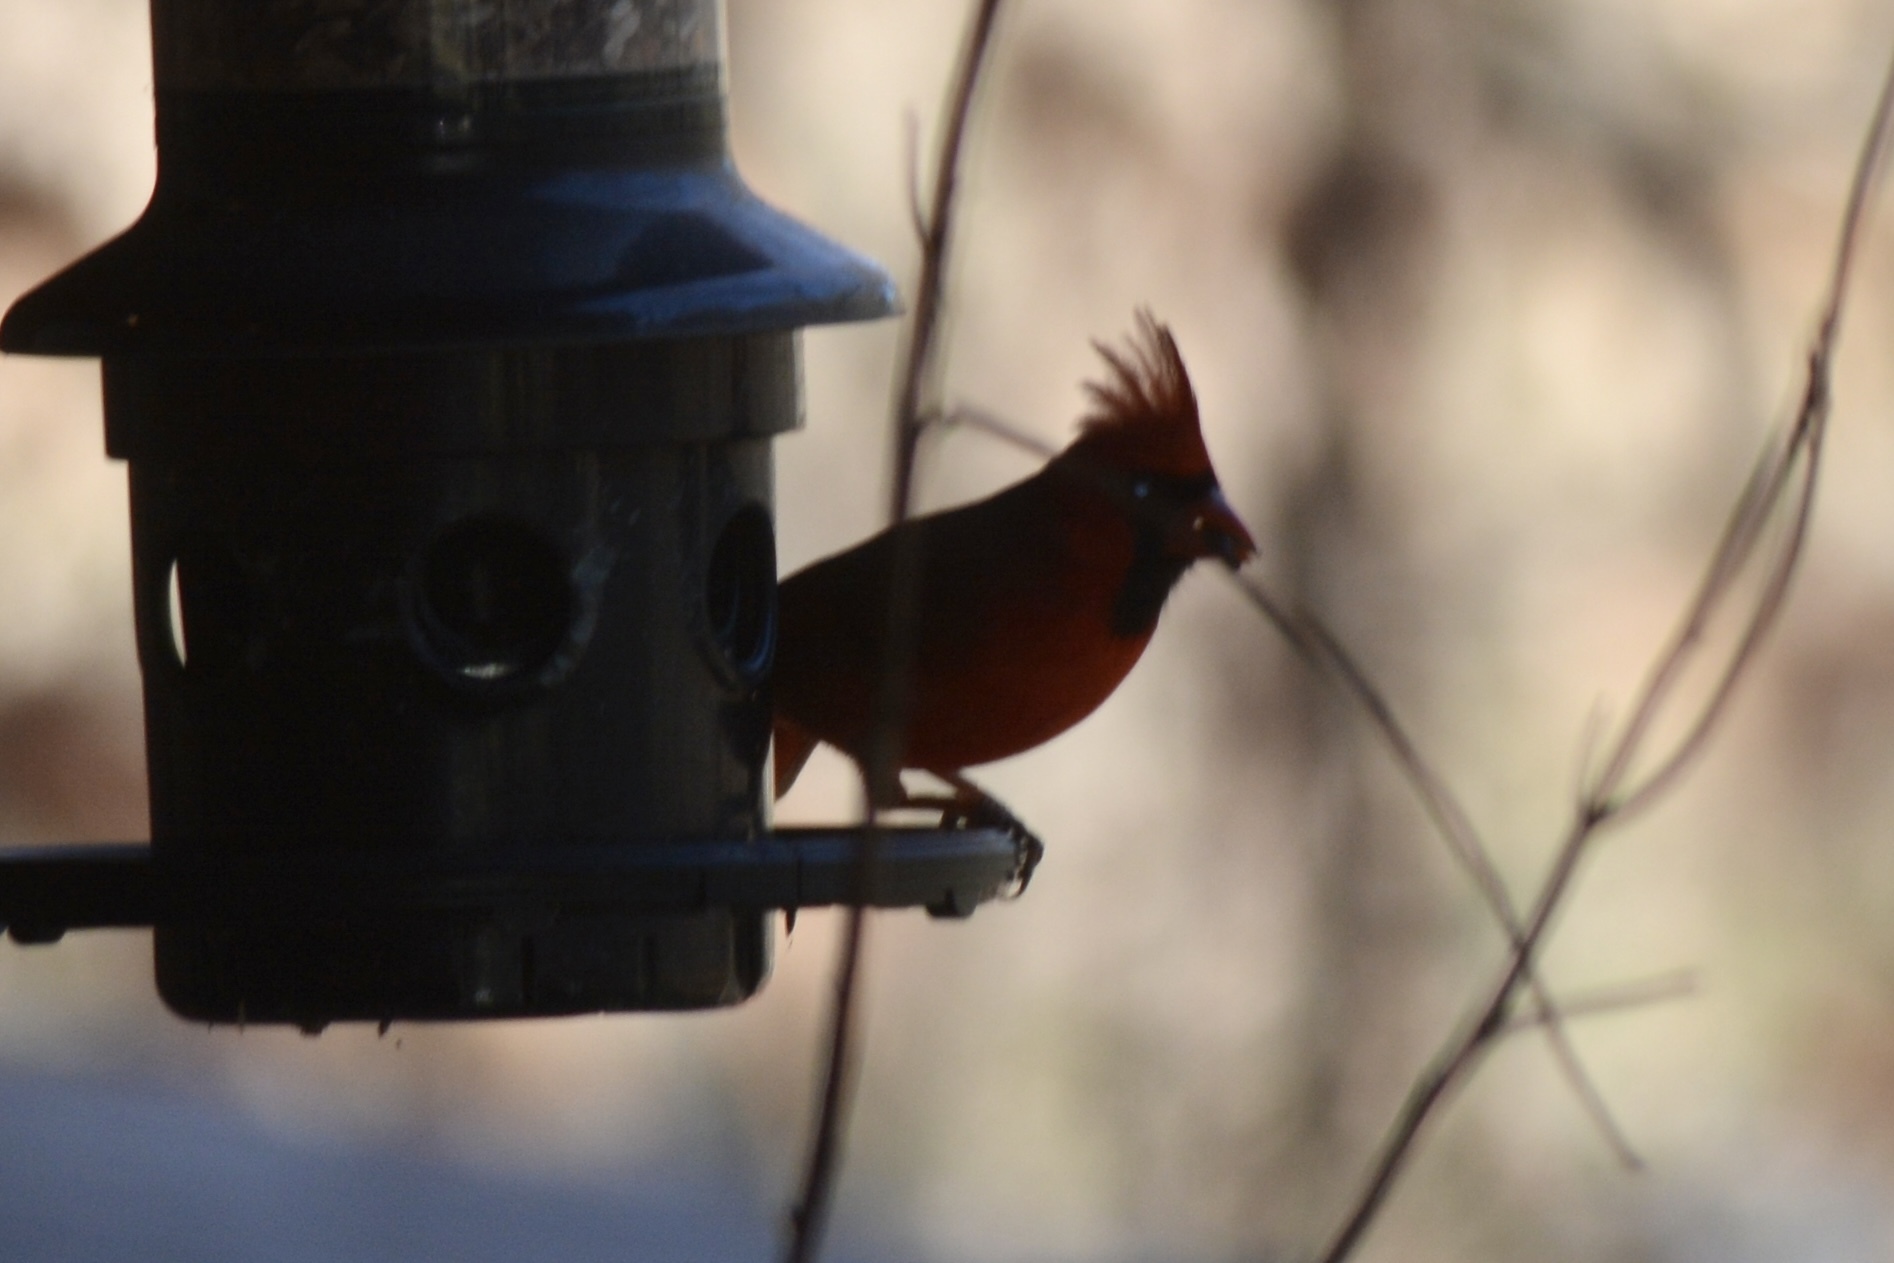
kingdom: Animalia
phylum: Chordata
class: Aves
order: Passeriformes
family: Cardinalidae
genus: Cardinalis
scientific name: Cardinalis cardinalis
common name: Northern cardinal
